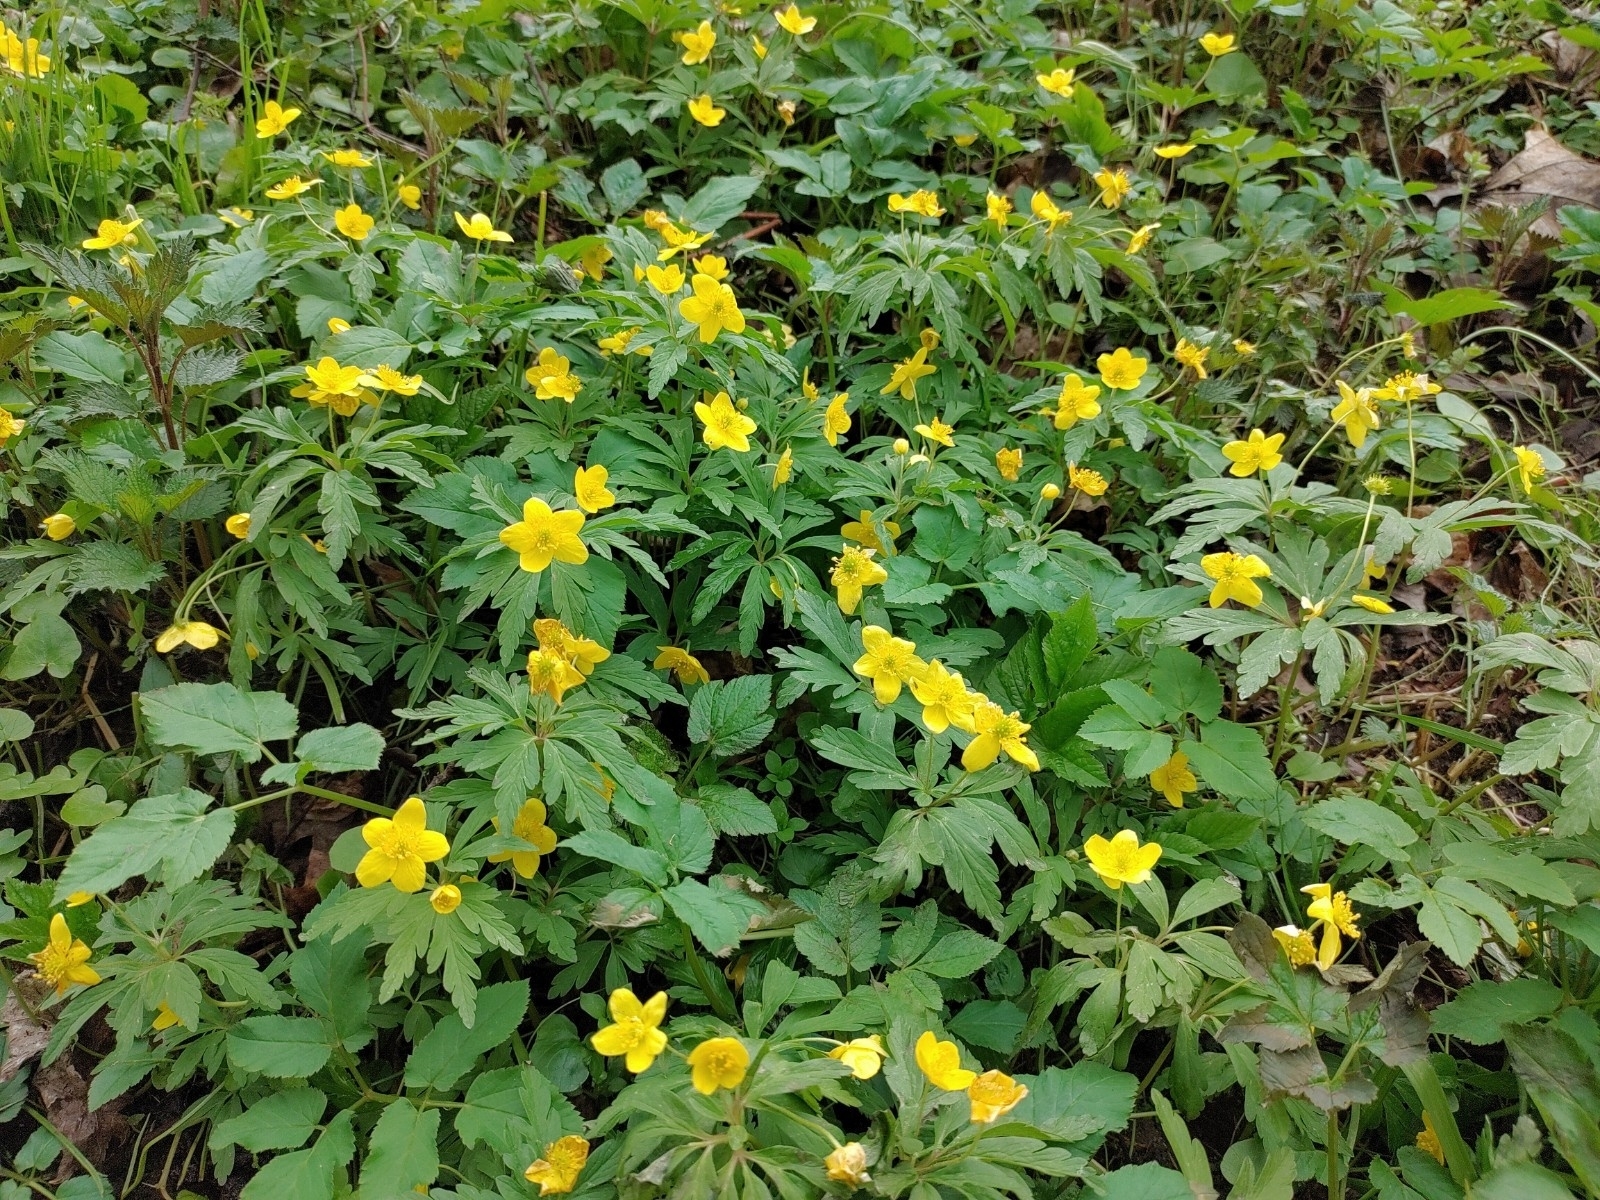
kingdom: Plantae
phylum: Tracheophyta
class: Magnoliopsida
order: Ranunculales
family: Ranunculaceae
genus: Anemone
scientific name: Anemone ranunculoides
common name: Yellow anemone
